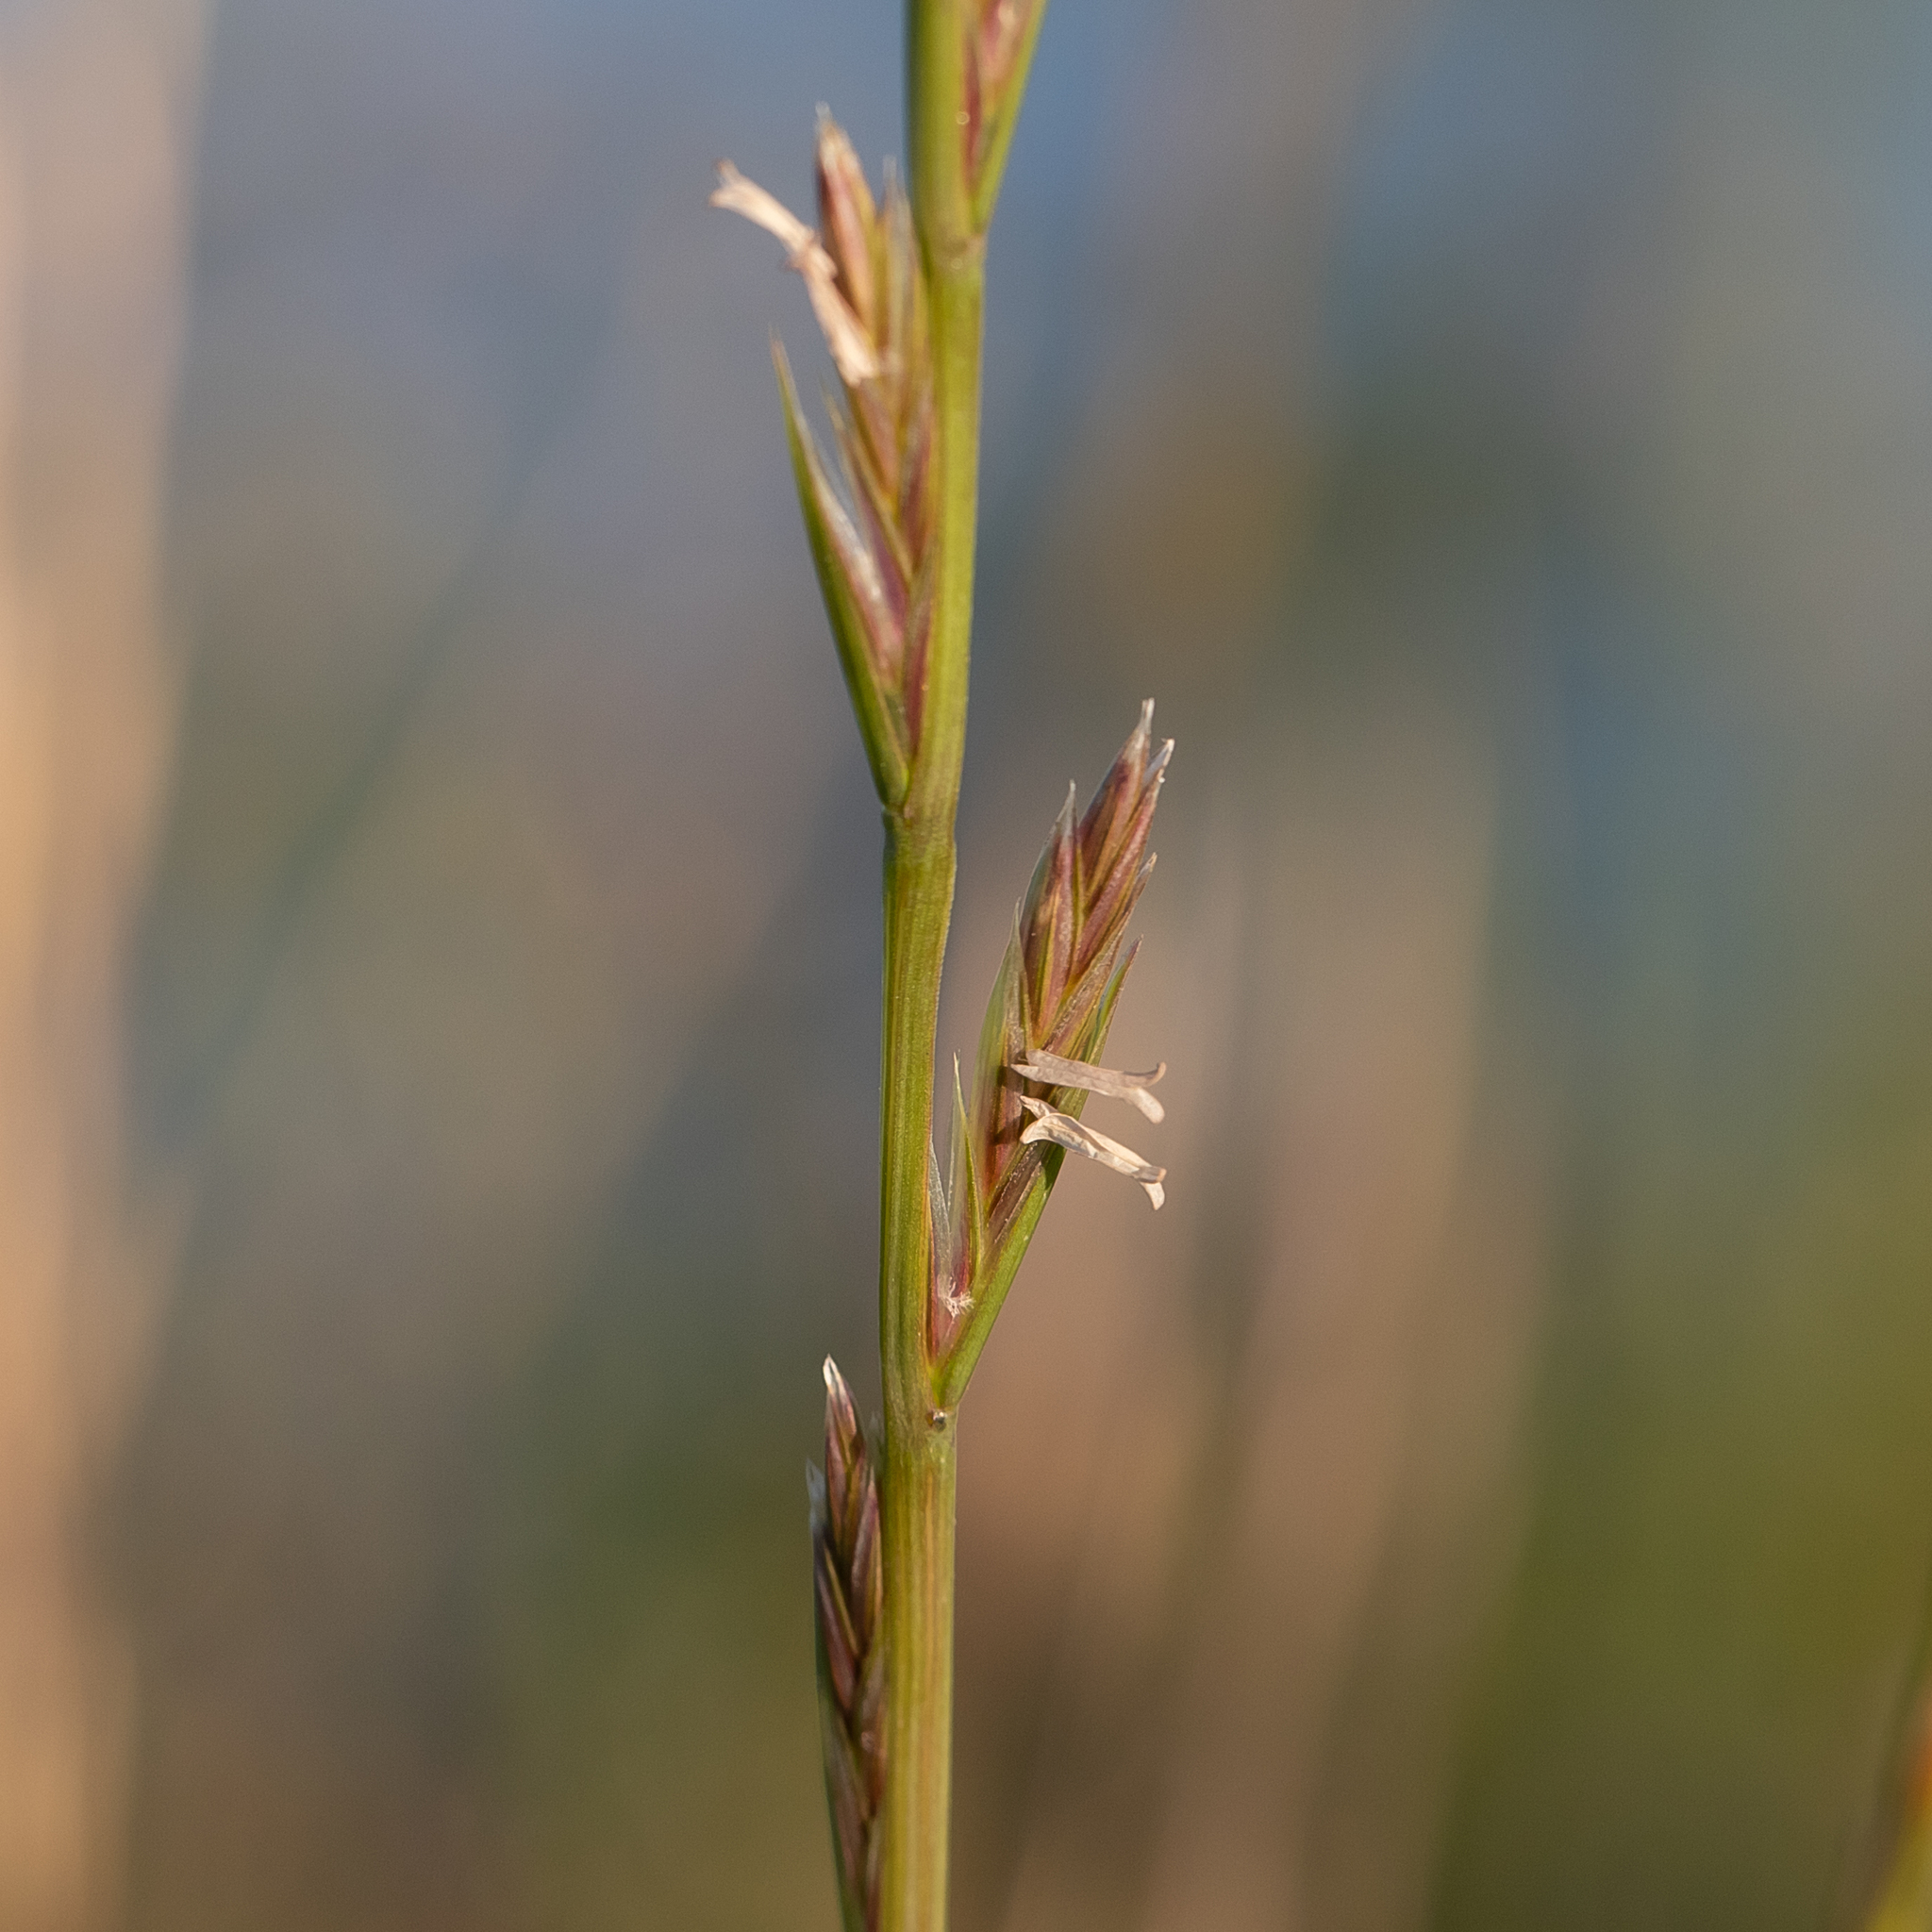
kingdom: Plantae
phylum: Tracheophyta
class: Liliopsida
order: Poales
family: Poaceae
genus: Lolium
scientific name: Lolium rigidum
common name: Wimmera ryegrass
